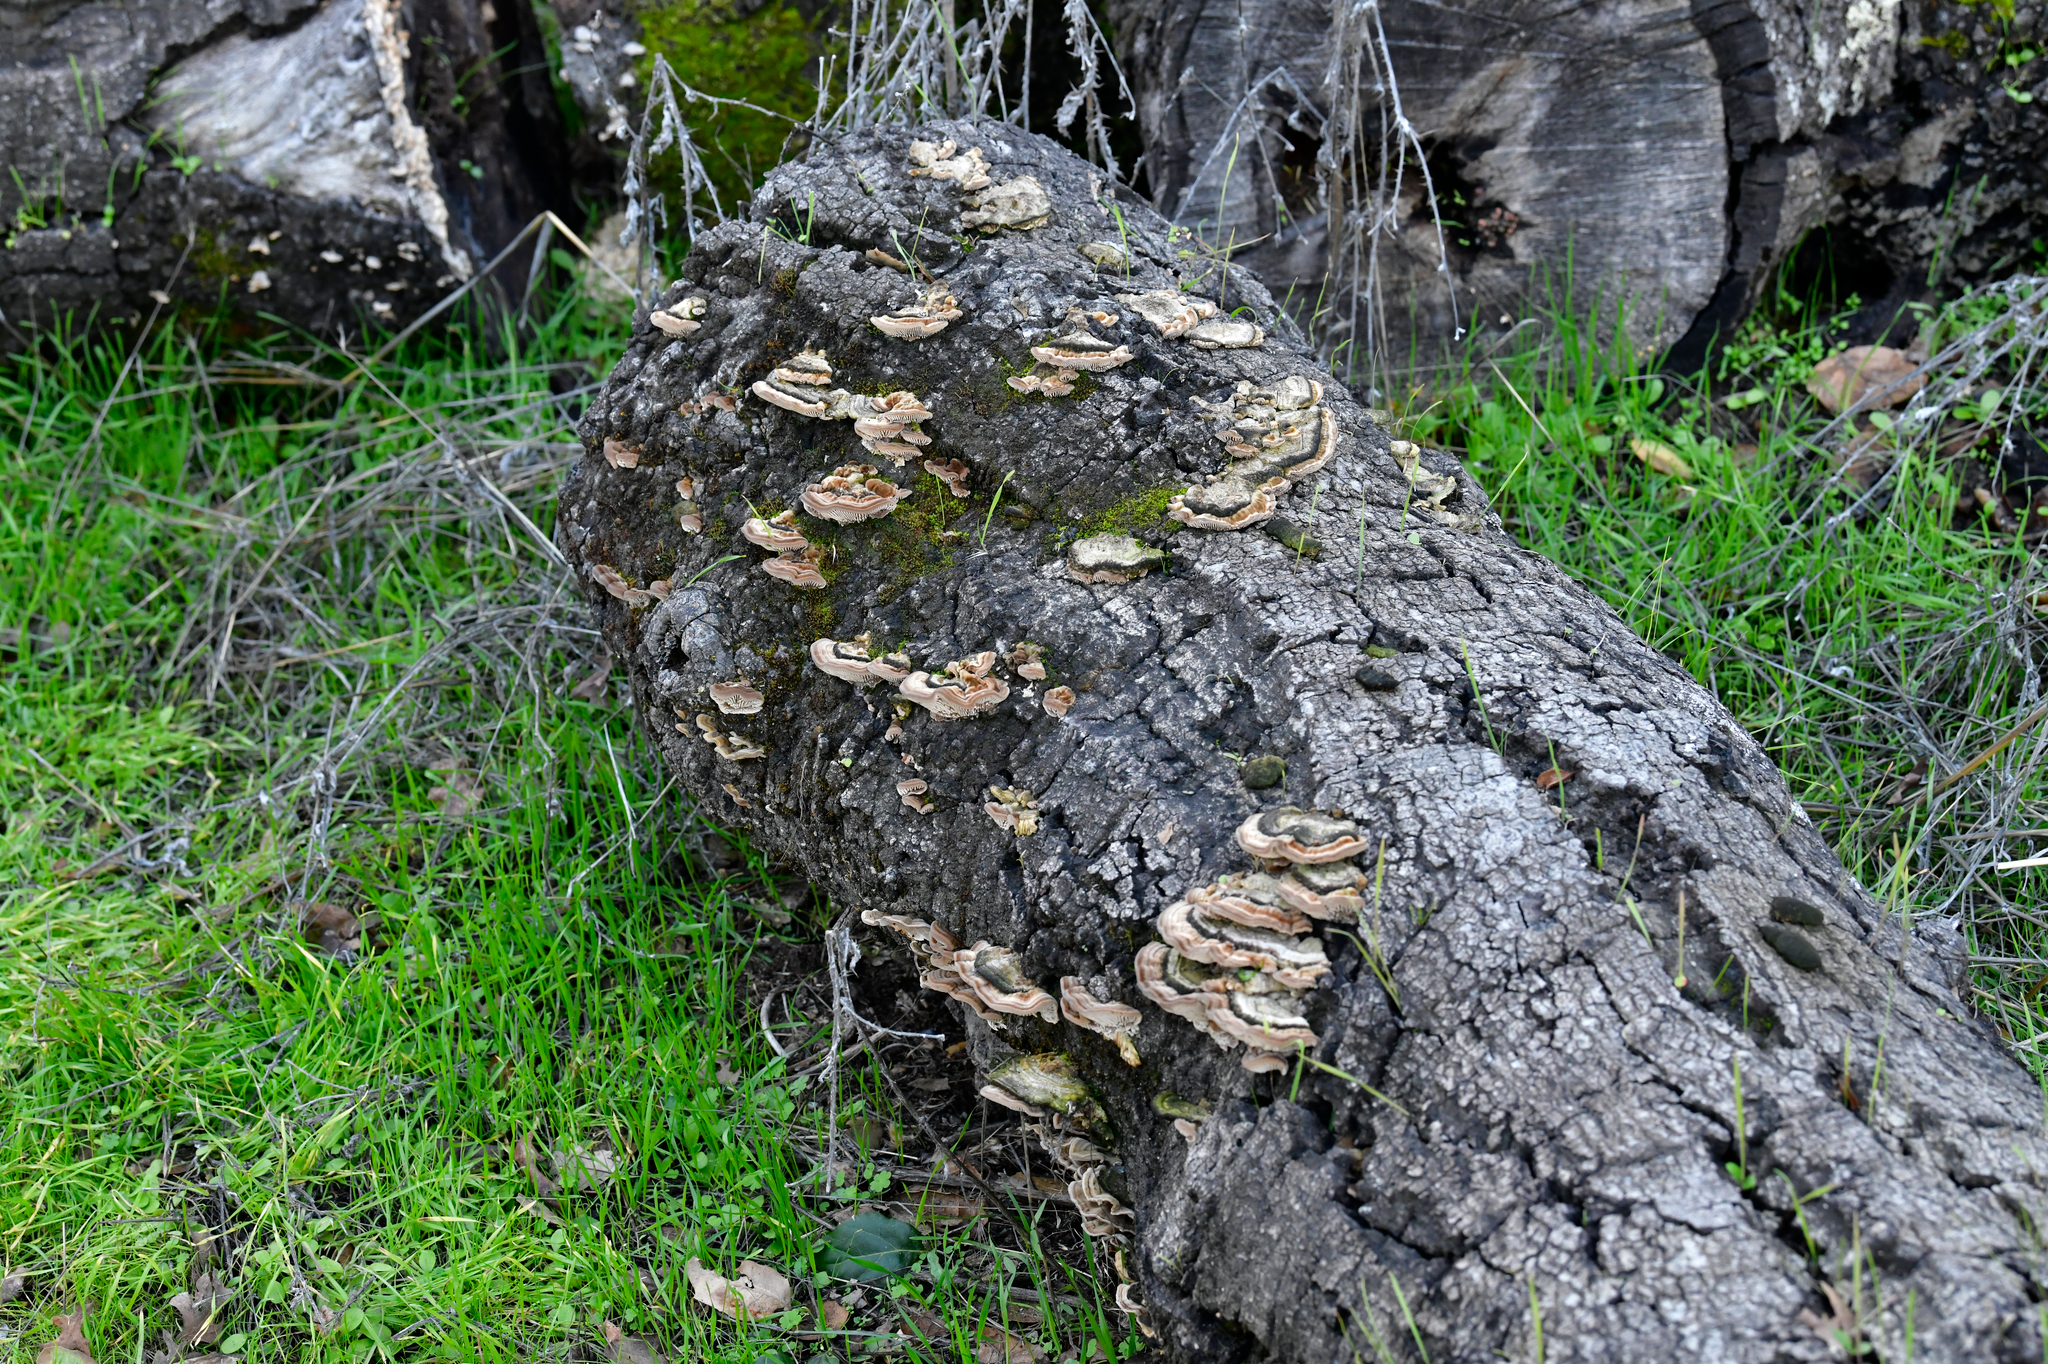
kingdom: Fungi
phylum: Basidiomycota
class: Agaricomycetes
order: Polyporales
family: Polyporaceae
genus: Lenzites
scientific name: Lenzites betulinus
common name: Birch mazegill
